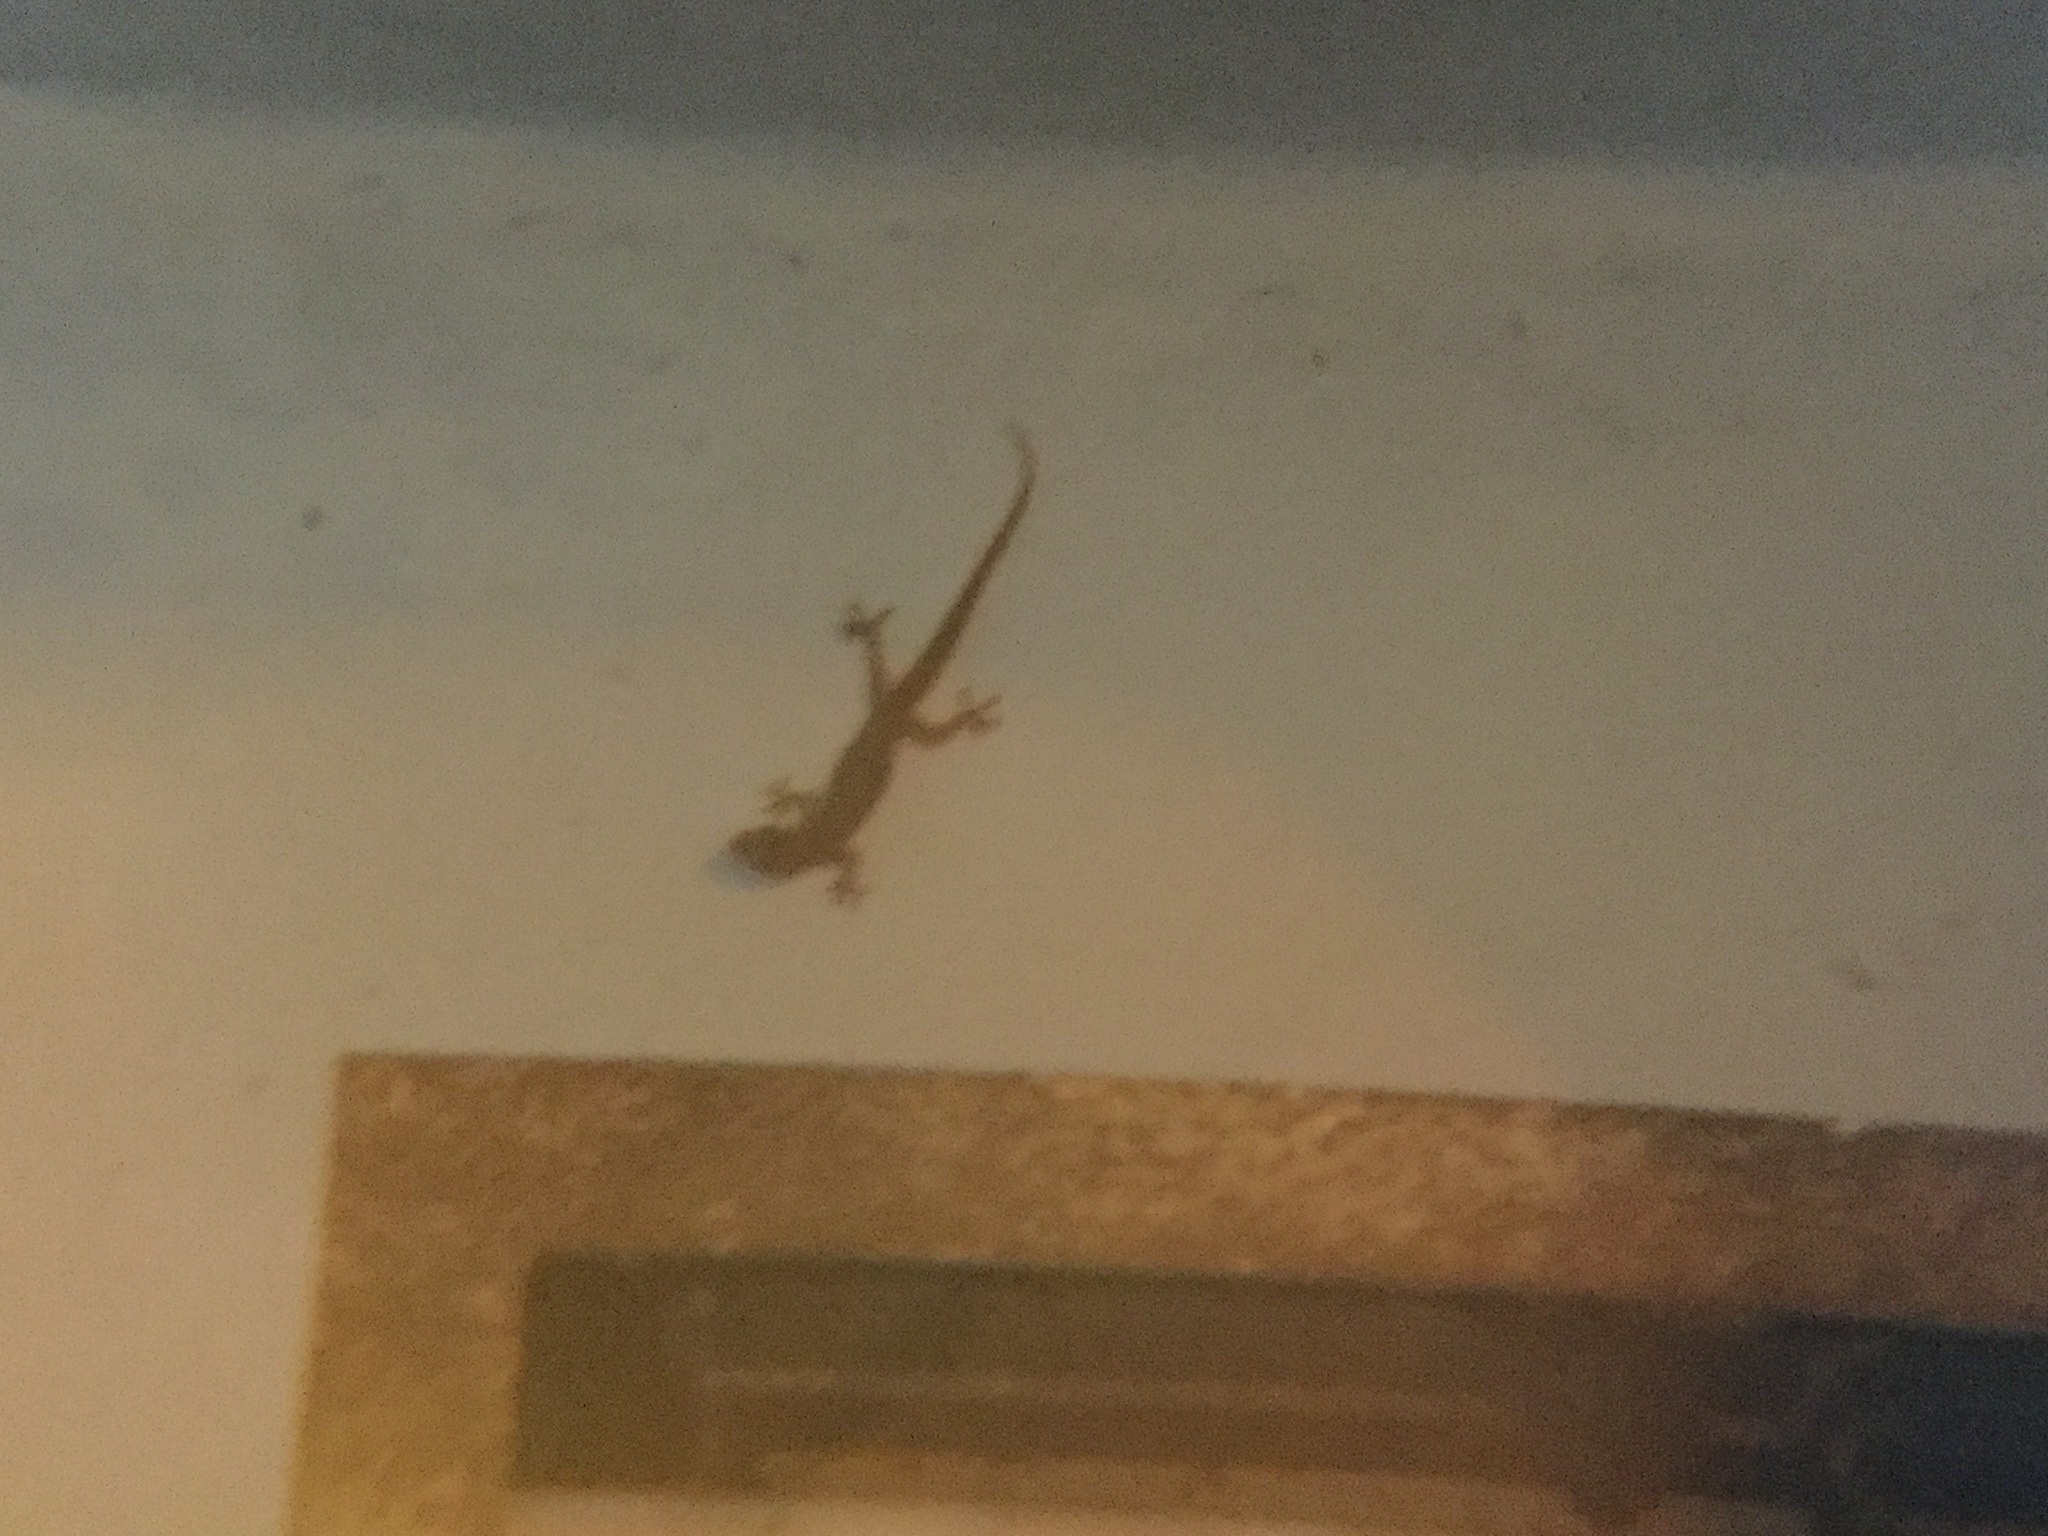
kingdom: Animalia
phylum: Chordata
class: Squamata
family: Gekkonidae
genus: Hemidactylus
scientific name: Hemidactylus frenatus
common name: Common house gecko
